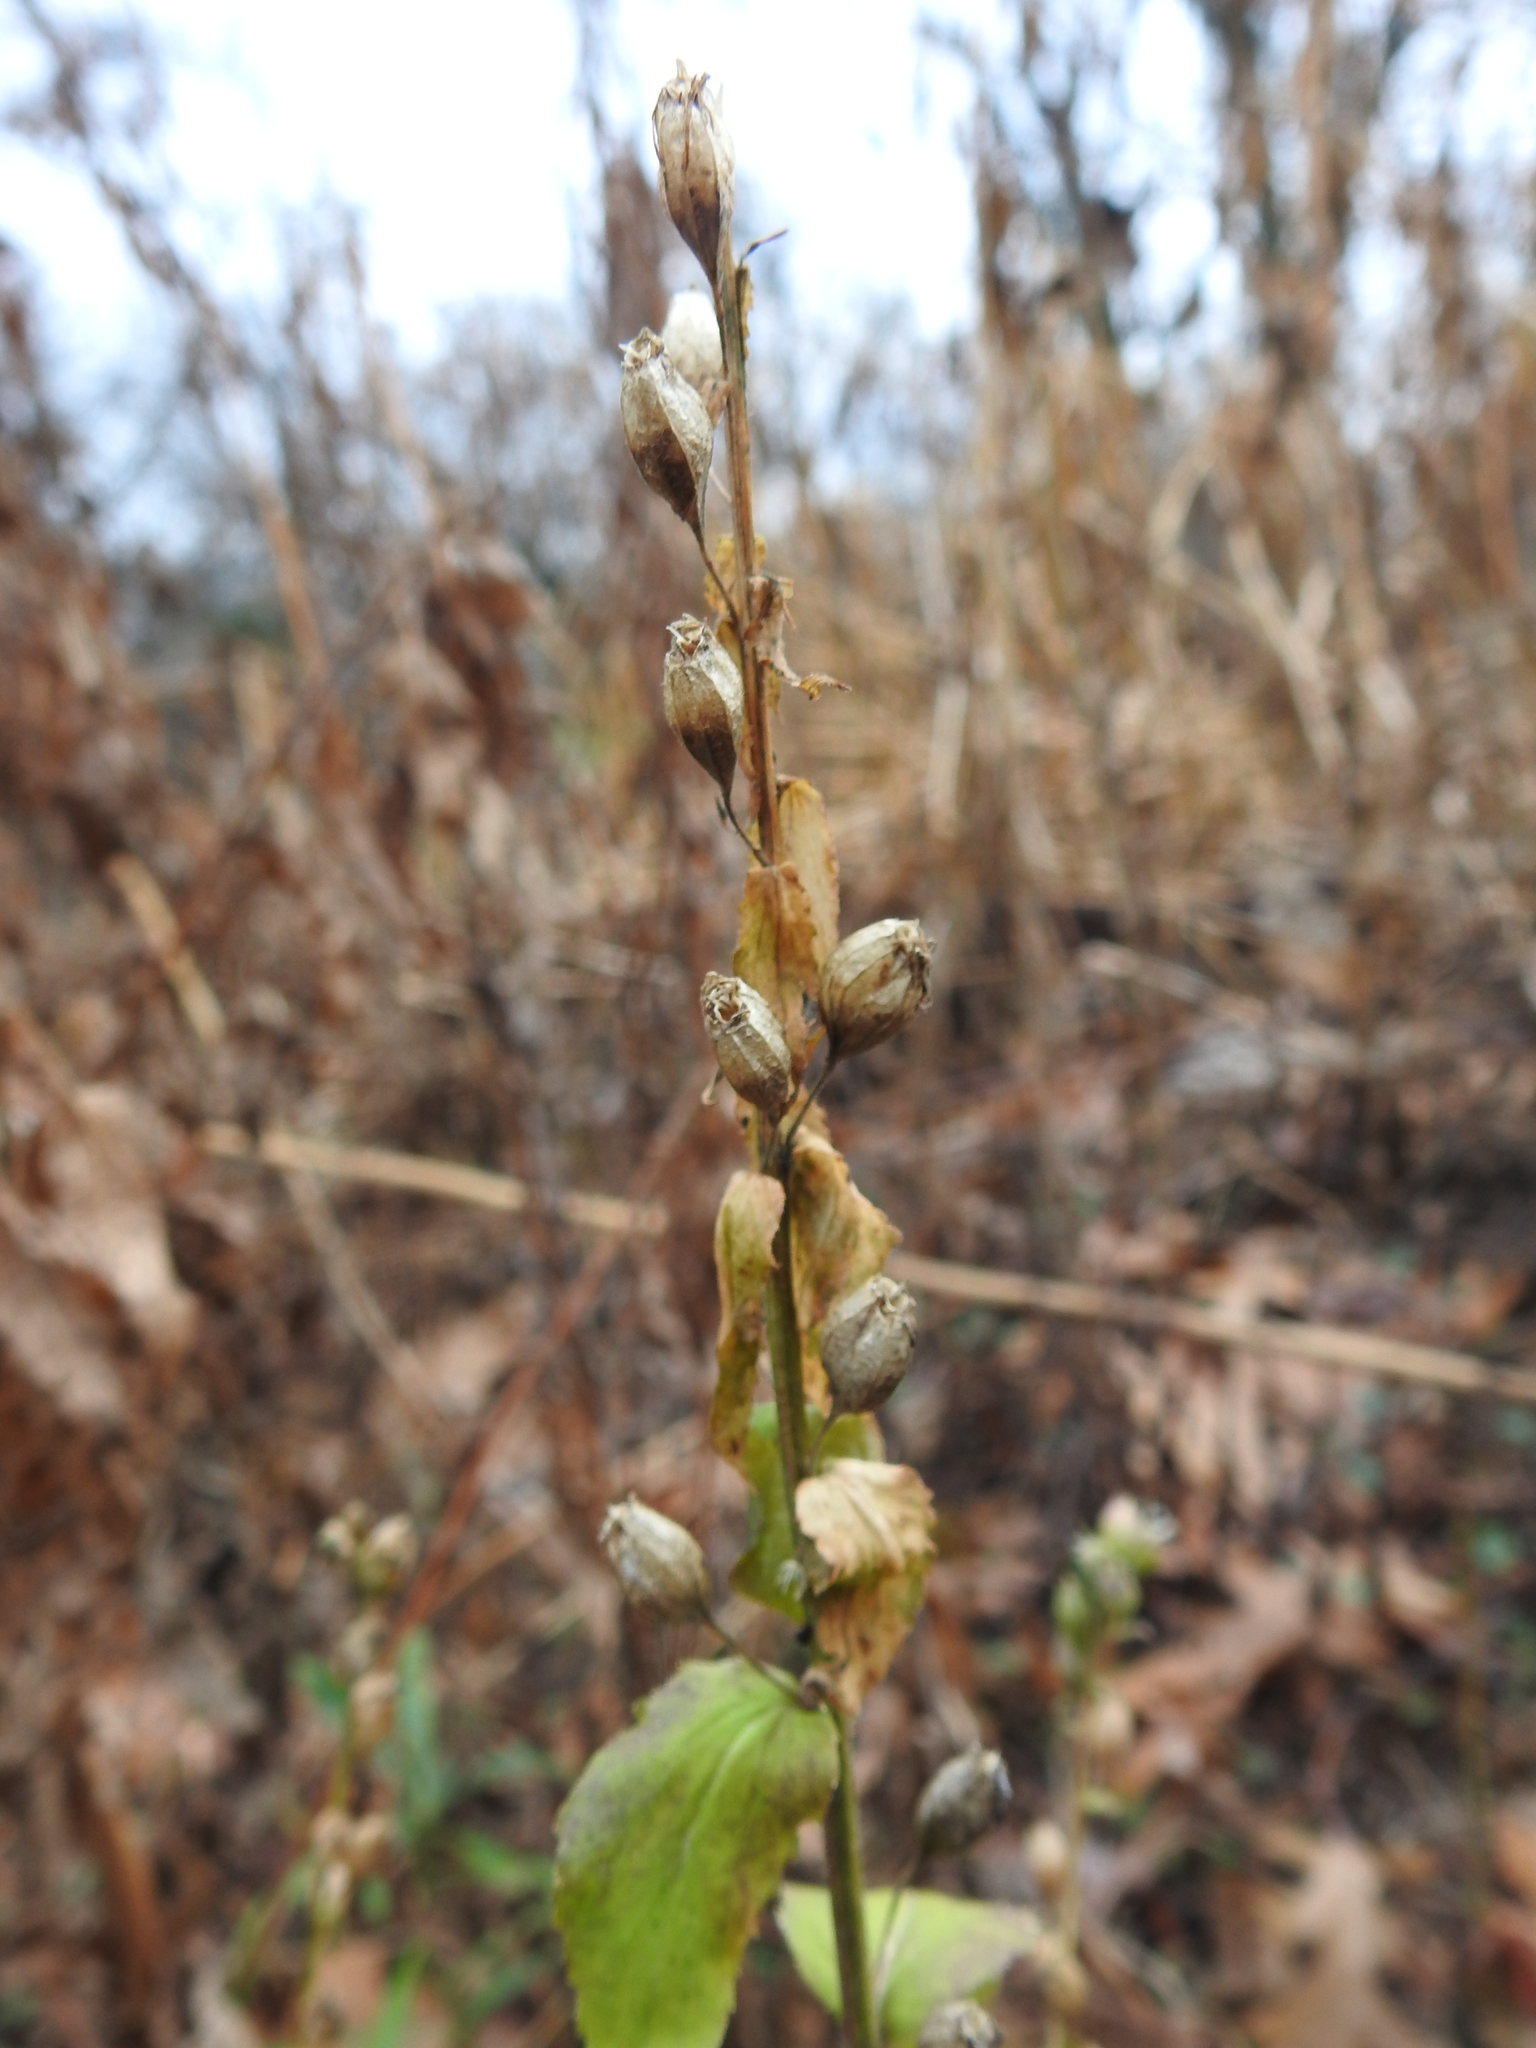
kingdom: Plantae
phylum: Tracheophyta
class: Magnoliopsida
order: Asterales
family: Campanulaceae
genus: Lobelia
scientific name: Lobelia inflata
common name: Indian tobacco
